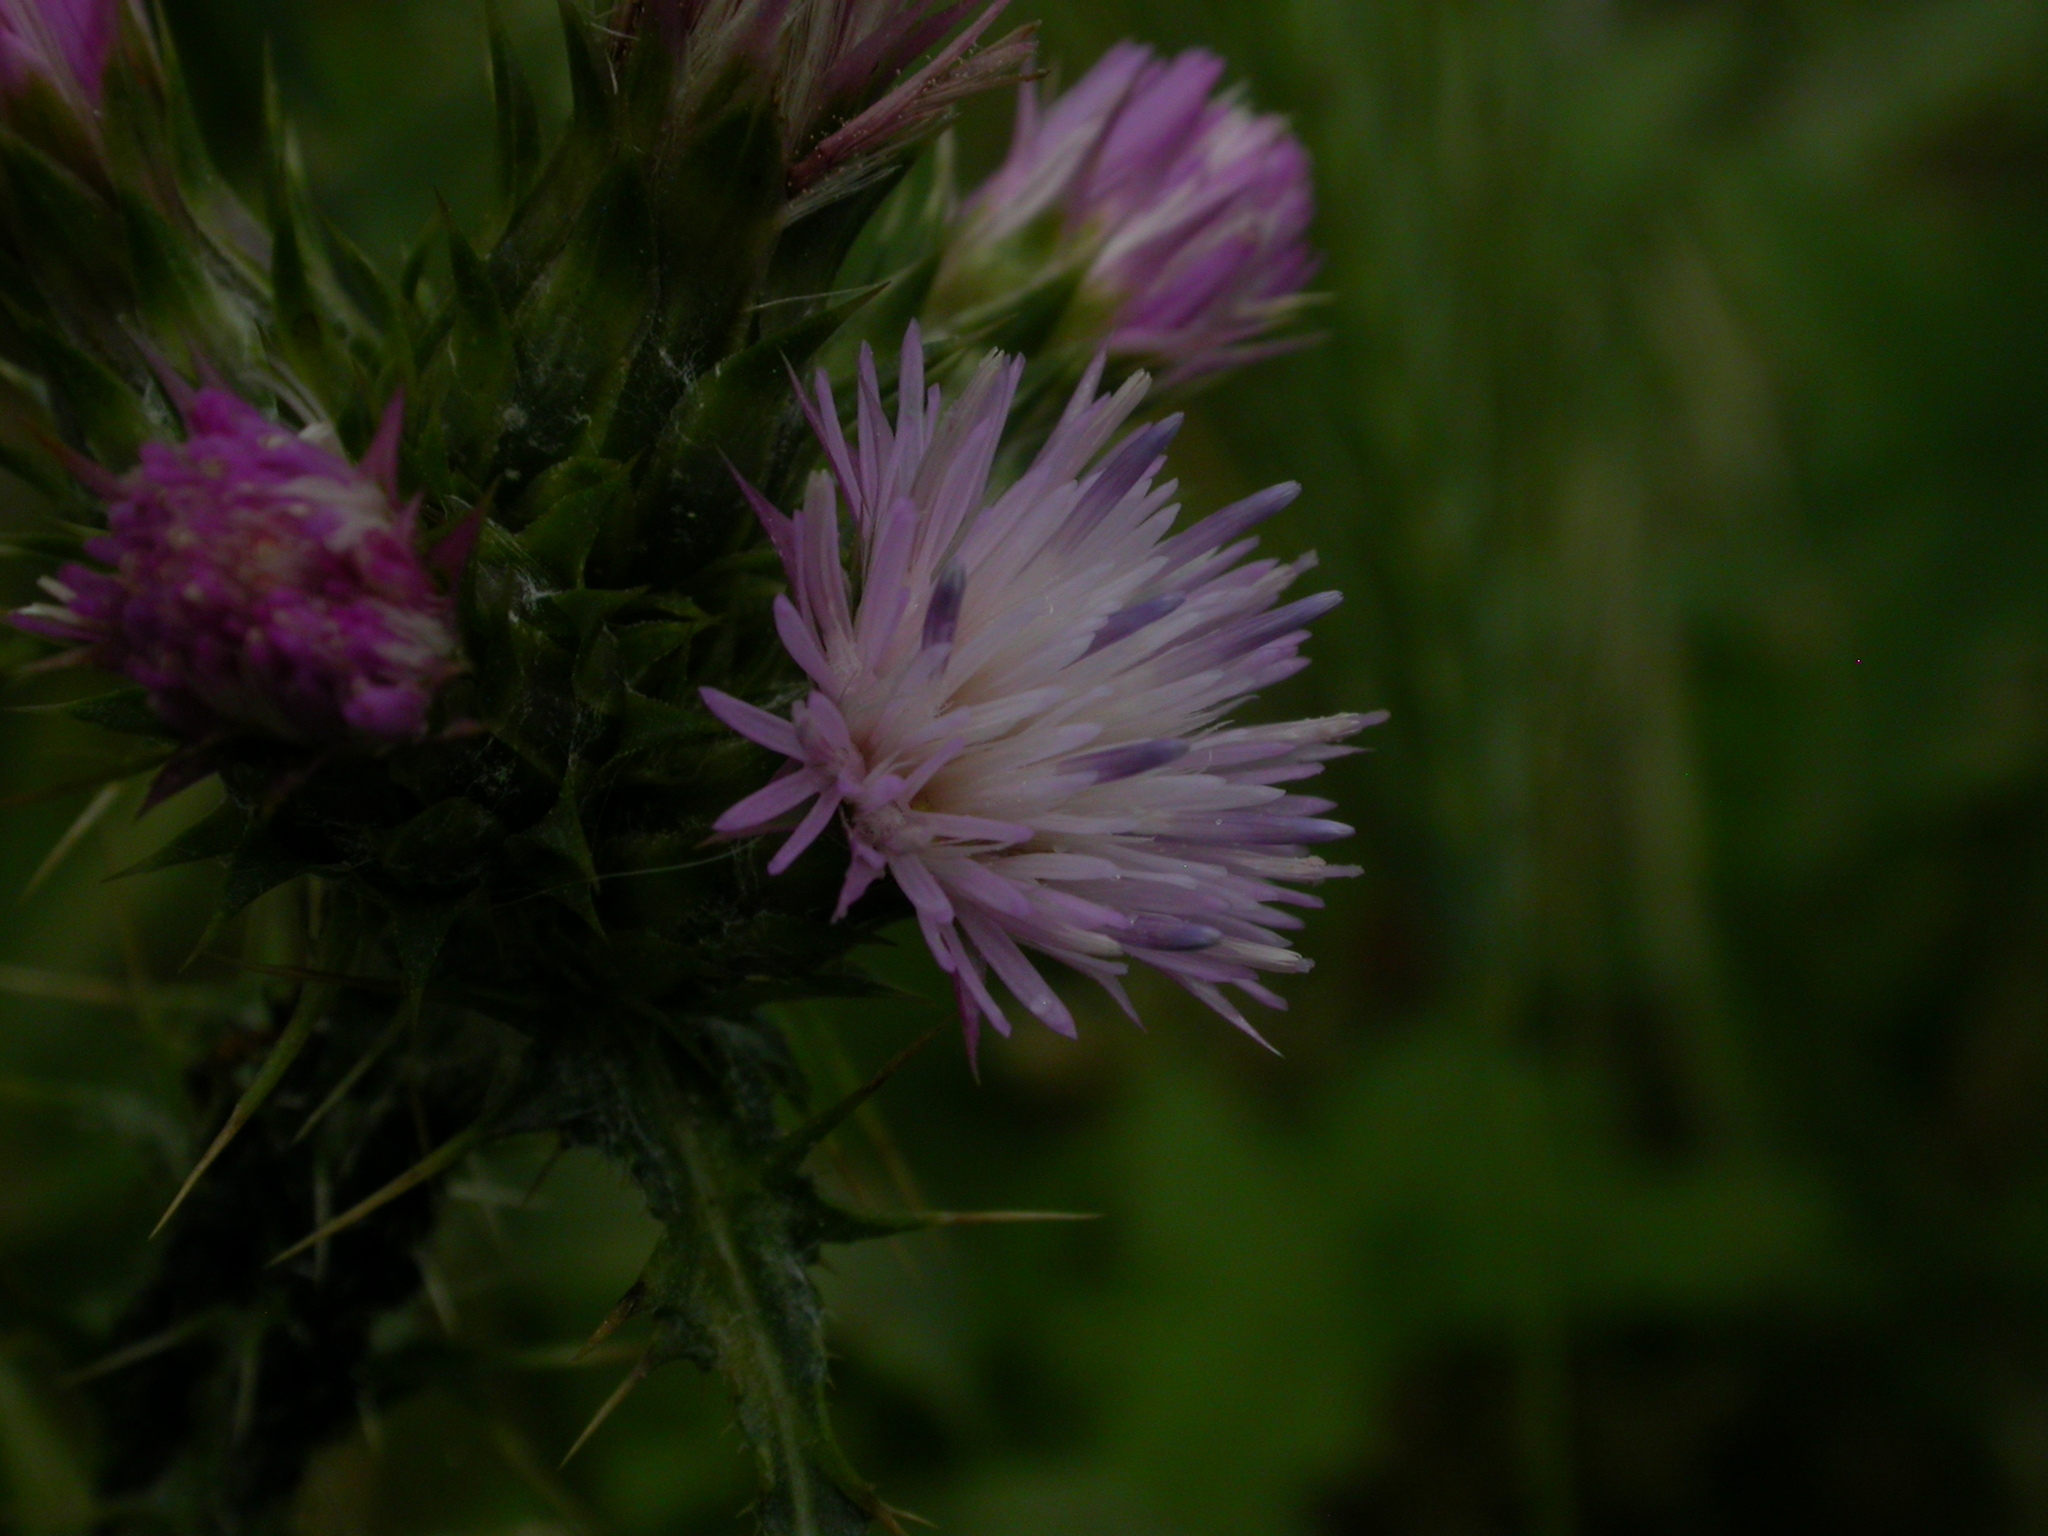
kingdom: Plantae
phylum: Tracheophyta
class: Magnoliopsida
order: Asterales
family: Asteraceae
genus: Carduus
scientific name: Carduus tenuiflorus
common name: Slender thistle
